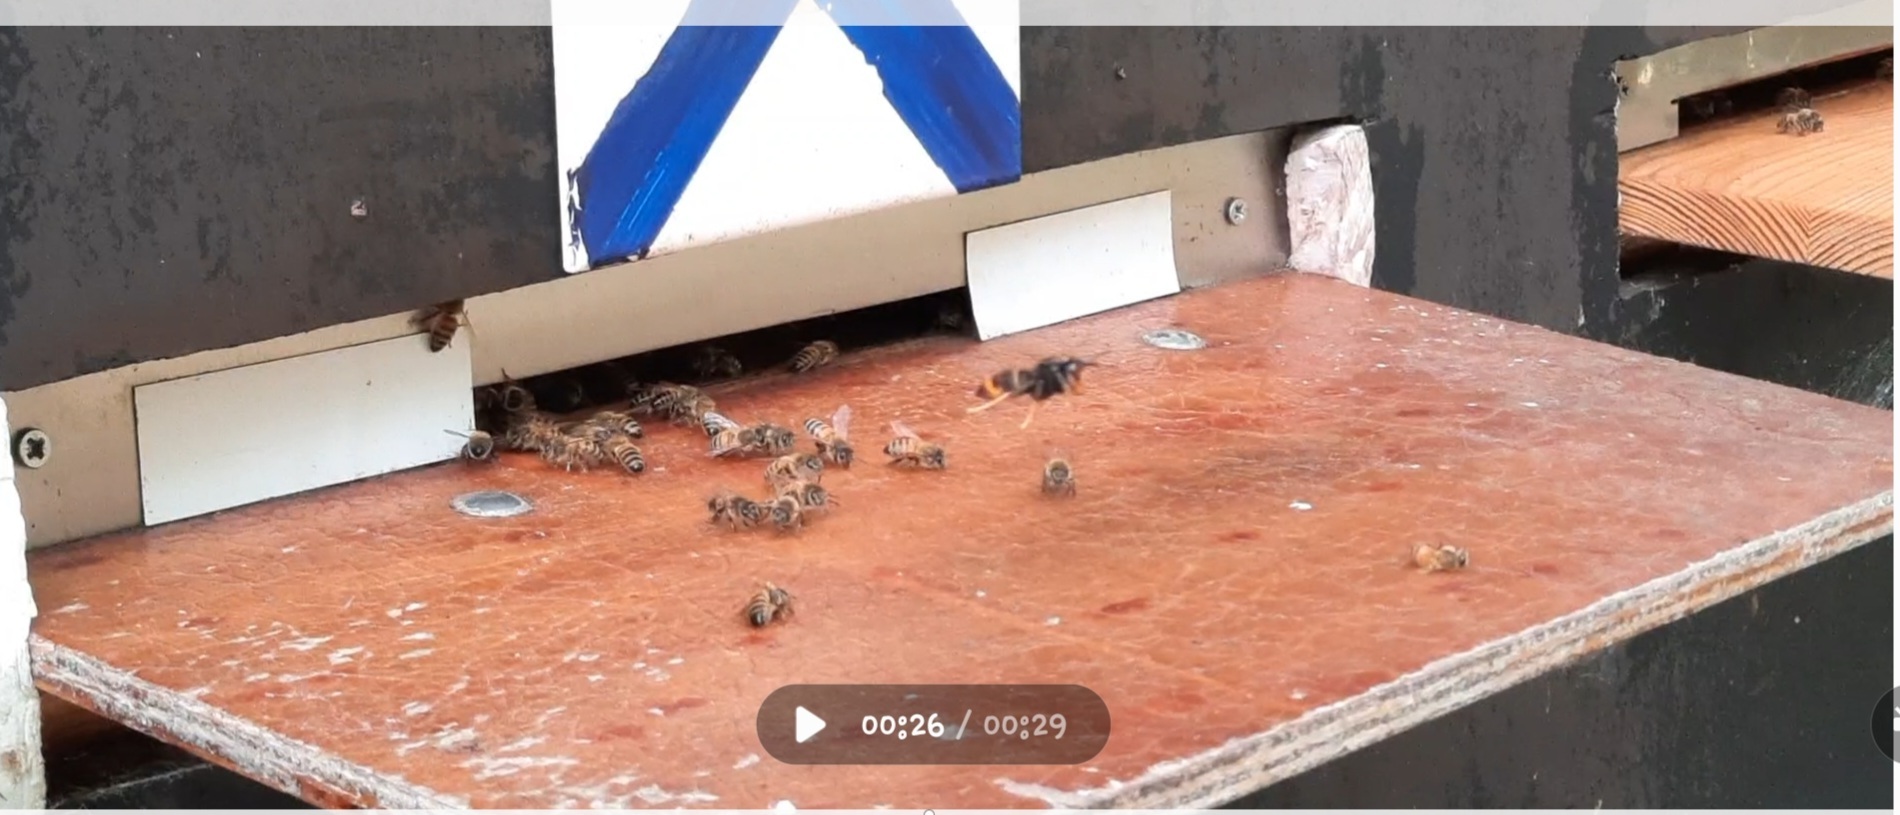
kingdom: Animalia
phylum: Arthropoda
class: Insecta
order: Hymenoptera
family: Vespidae
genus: Vespa
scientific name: Vespa velutina
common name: Asian hornet
